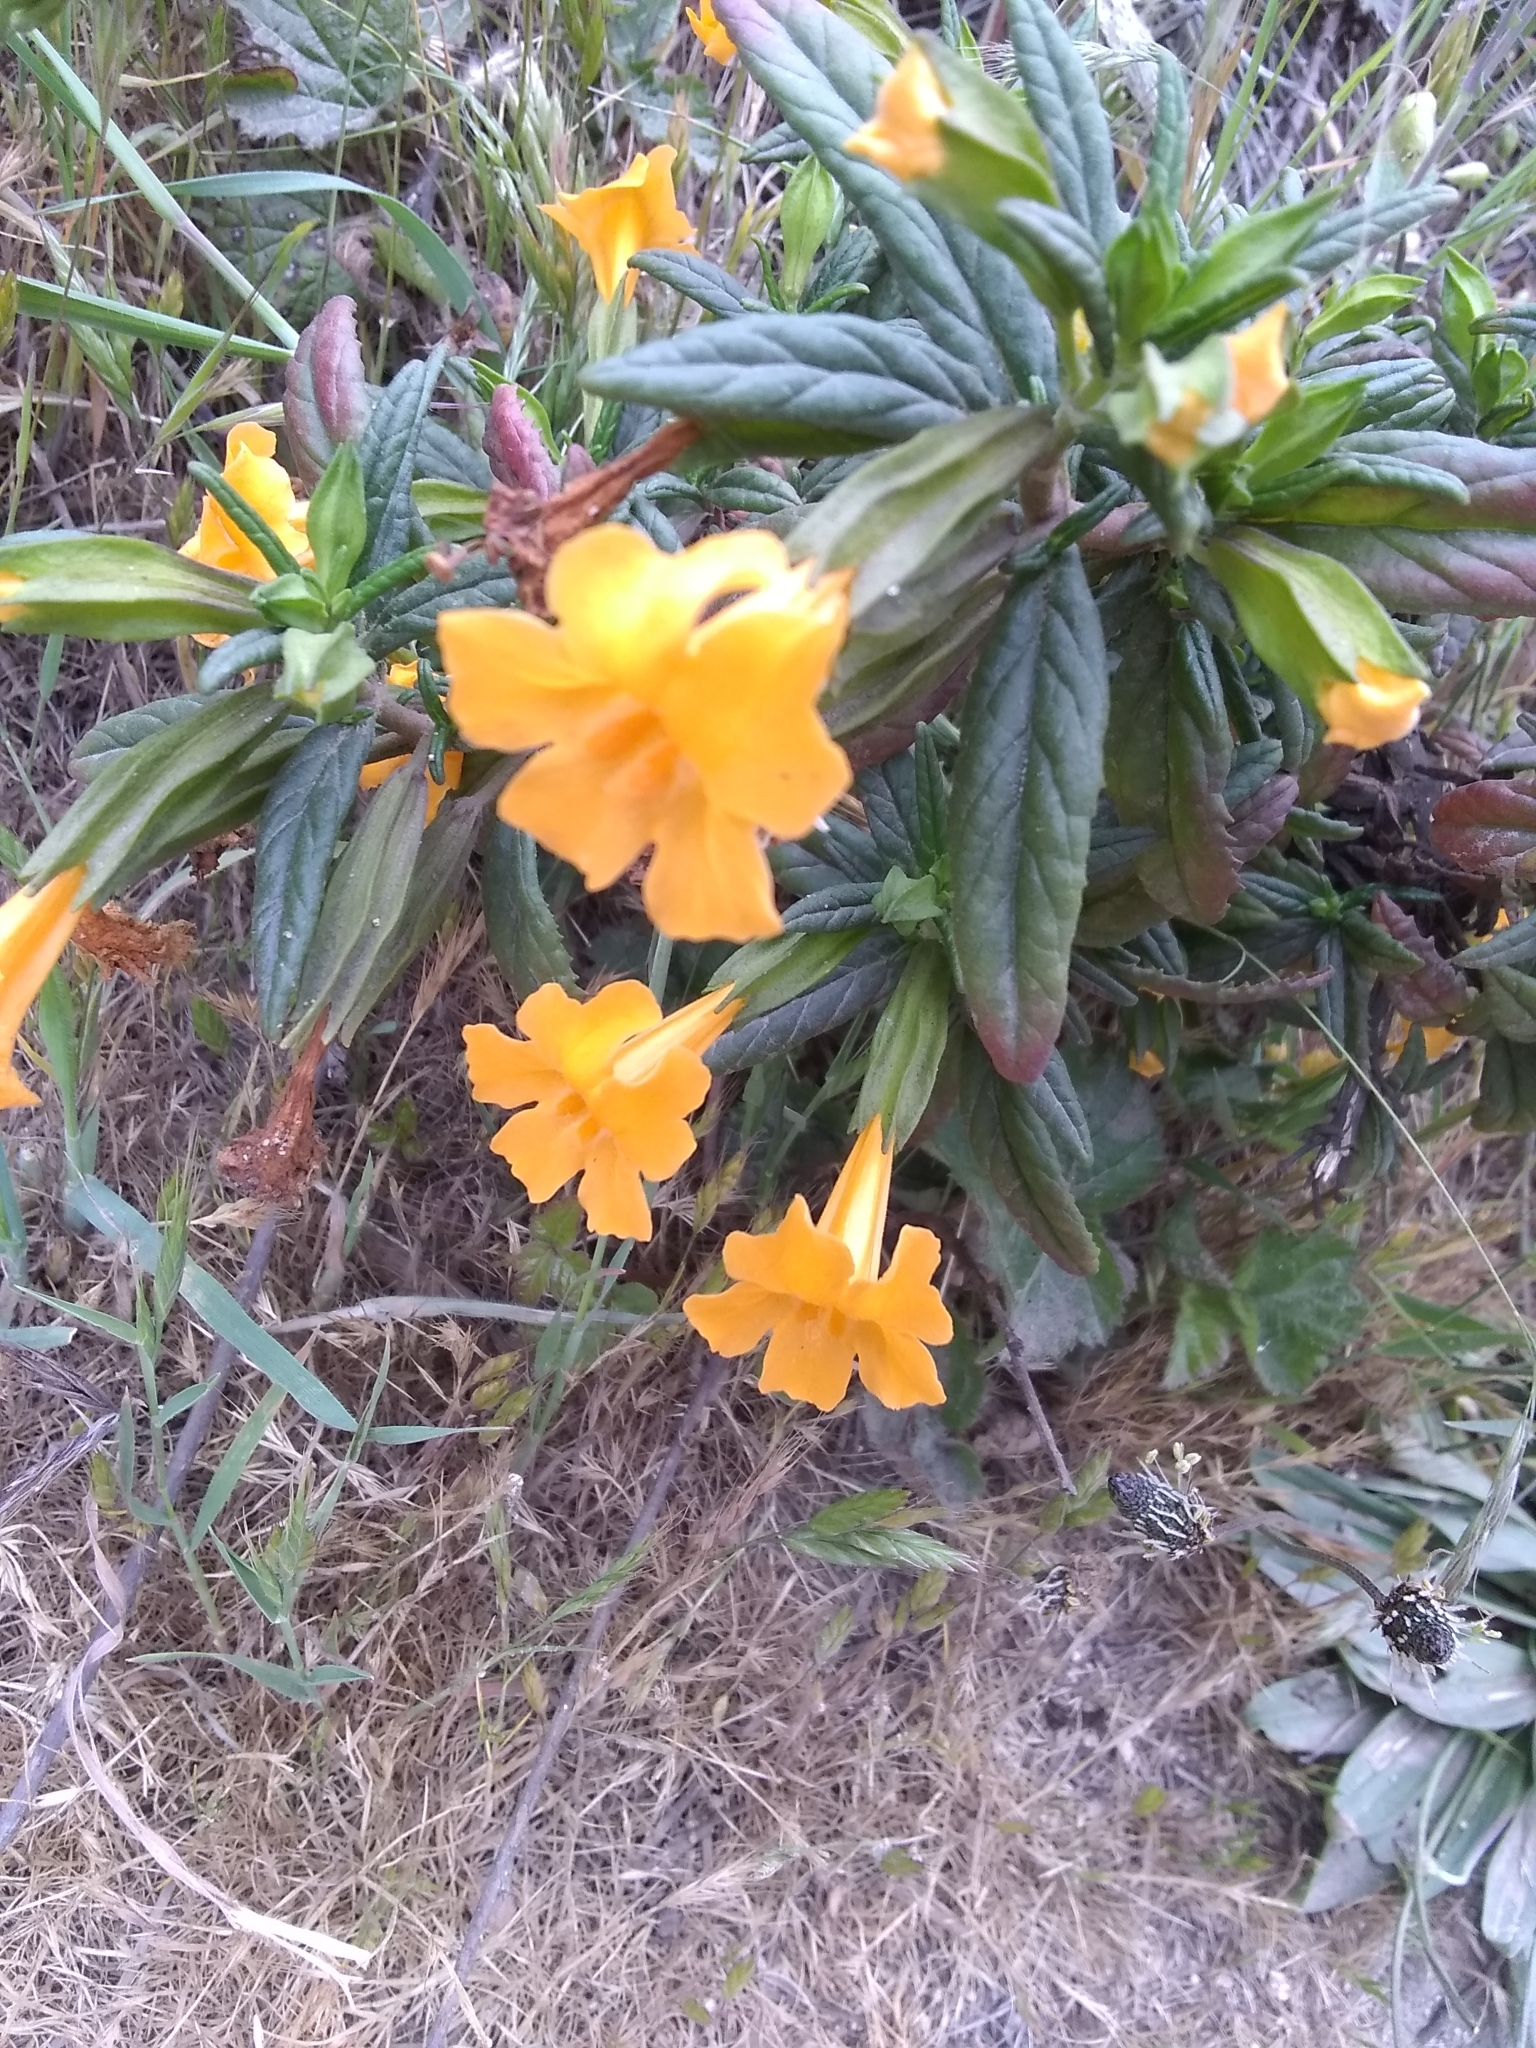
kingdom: Plantae
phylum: Tracheophyta
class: Magnoliopsida
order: Lamiales
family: Phrymaceae
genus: Diplacus
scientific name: Diplacus aurantiacus
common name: Bush monkey-flower
